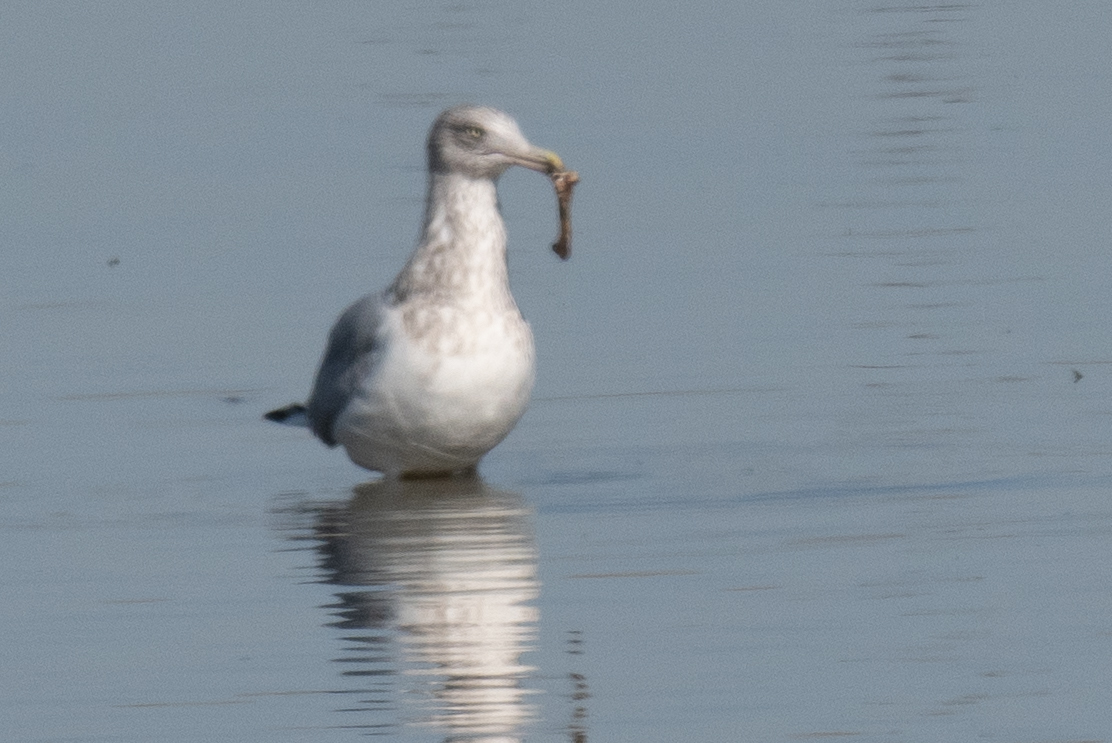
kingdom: Animalia
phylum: Chordata
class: Aves
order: Charadriiformes
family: Laridae
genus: Larus
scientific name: Larus argentatus
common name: Herring gull
